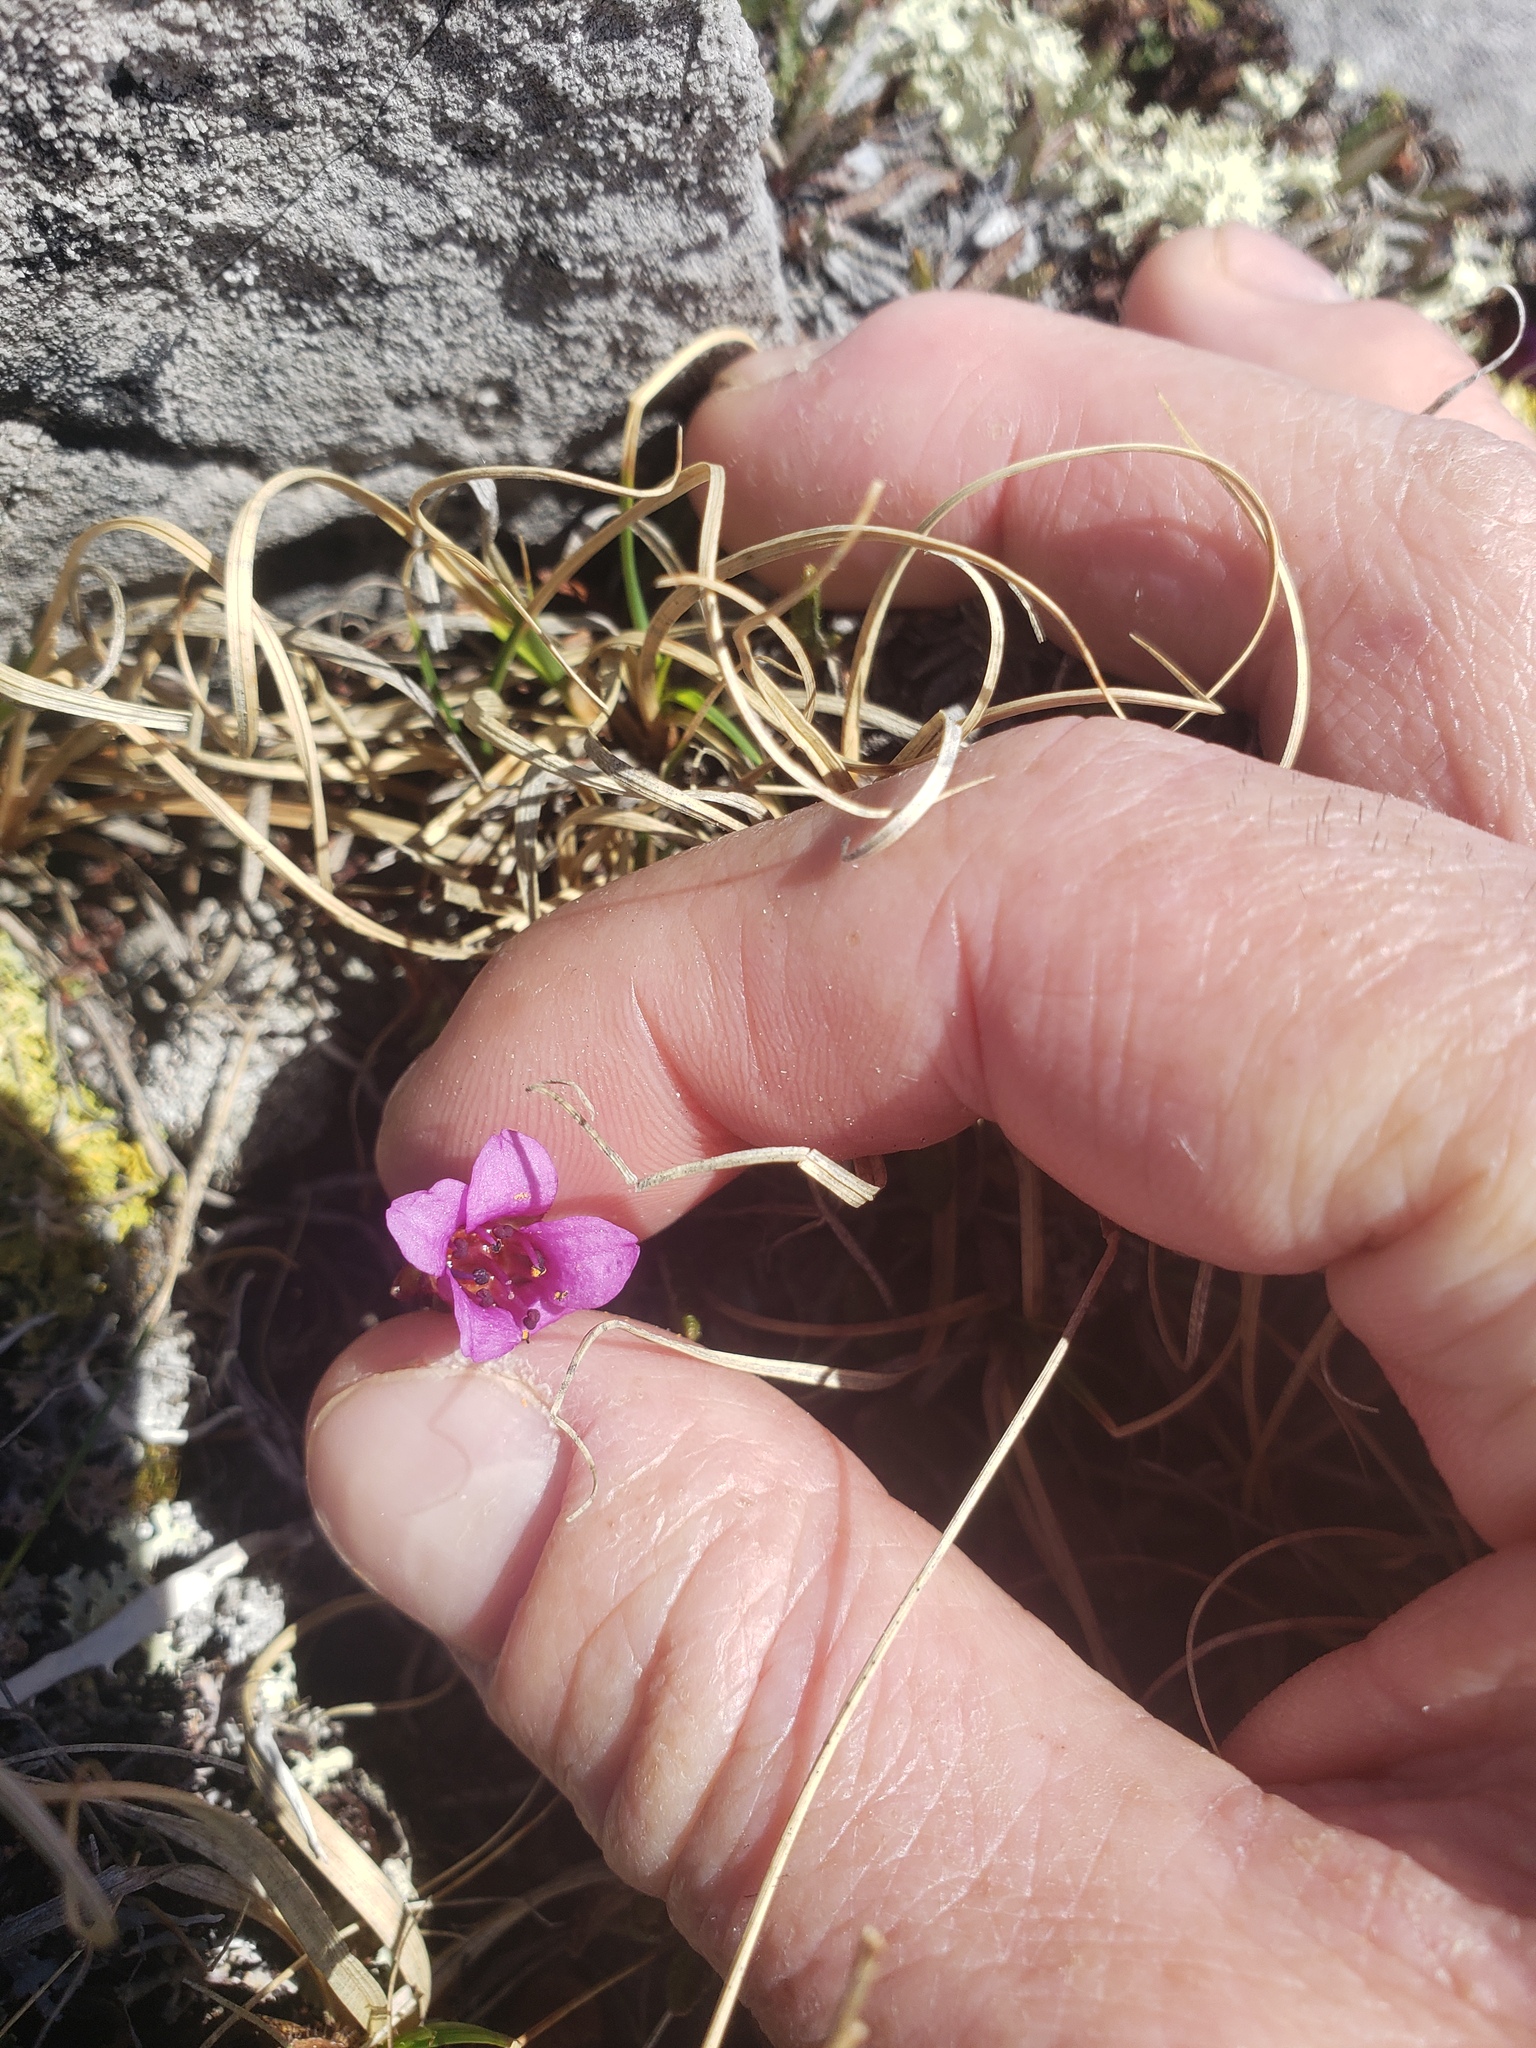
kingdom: Plantae
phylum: Tracheophyta
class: Magnoliopsida
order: Saxifragales
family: Saxifragaceae
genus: Saxifraga
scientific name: Saxifraga oppositifolia
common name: Purple saxifrage
